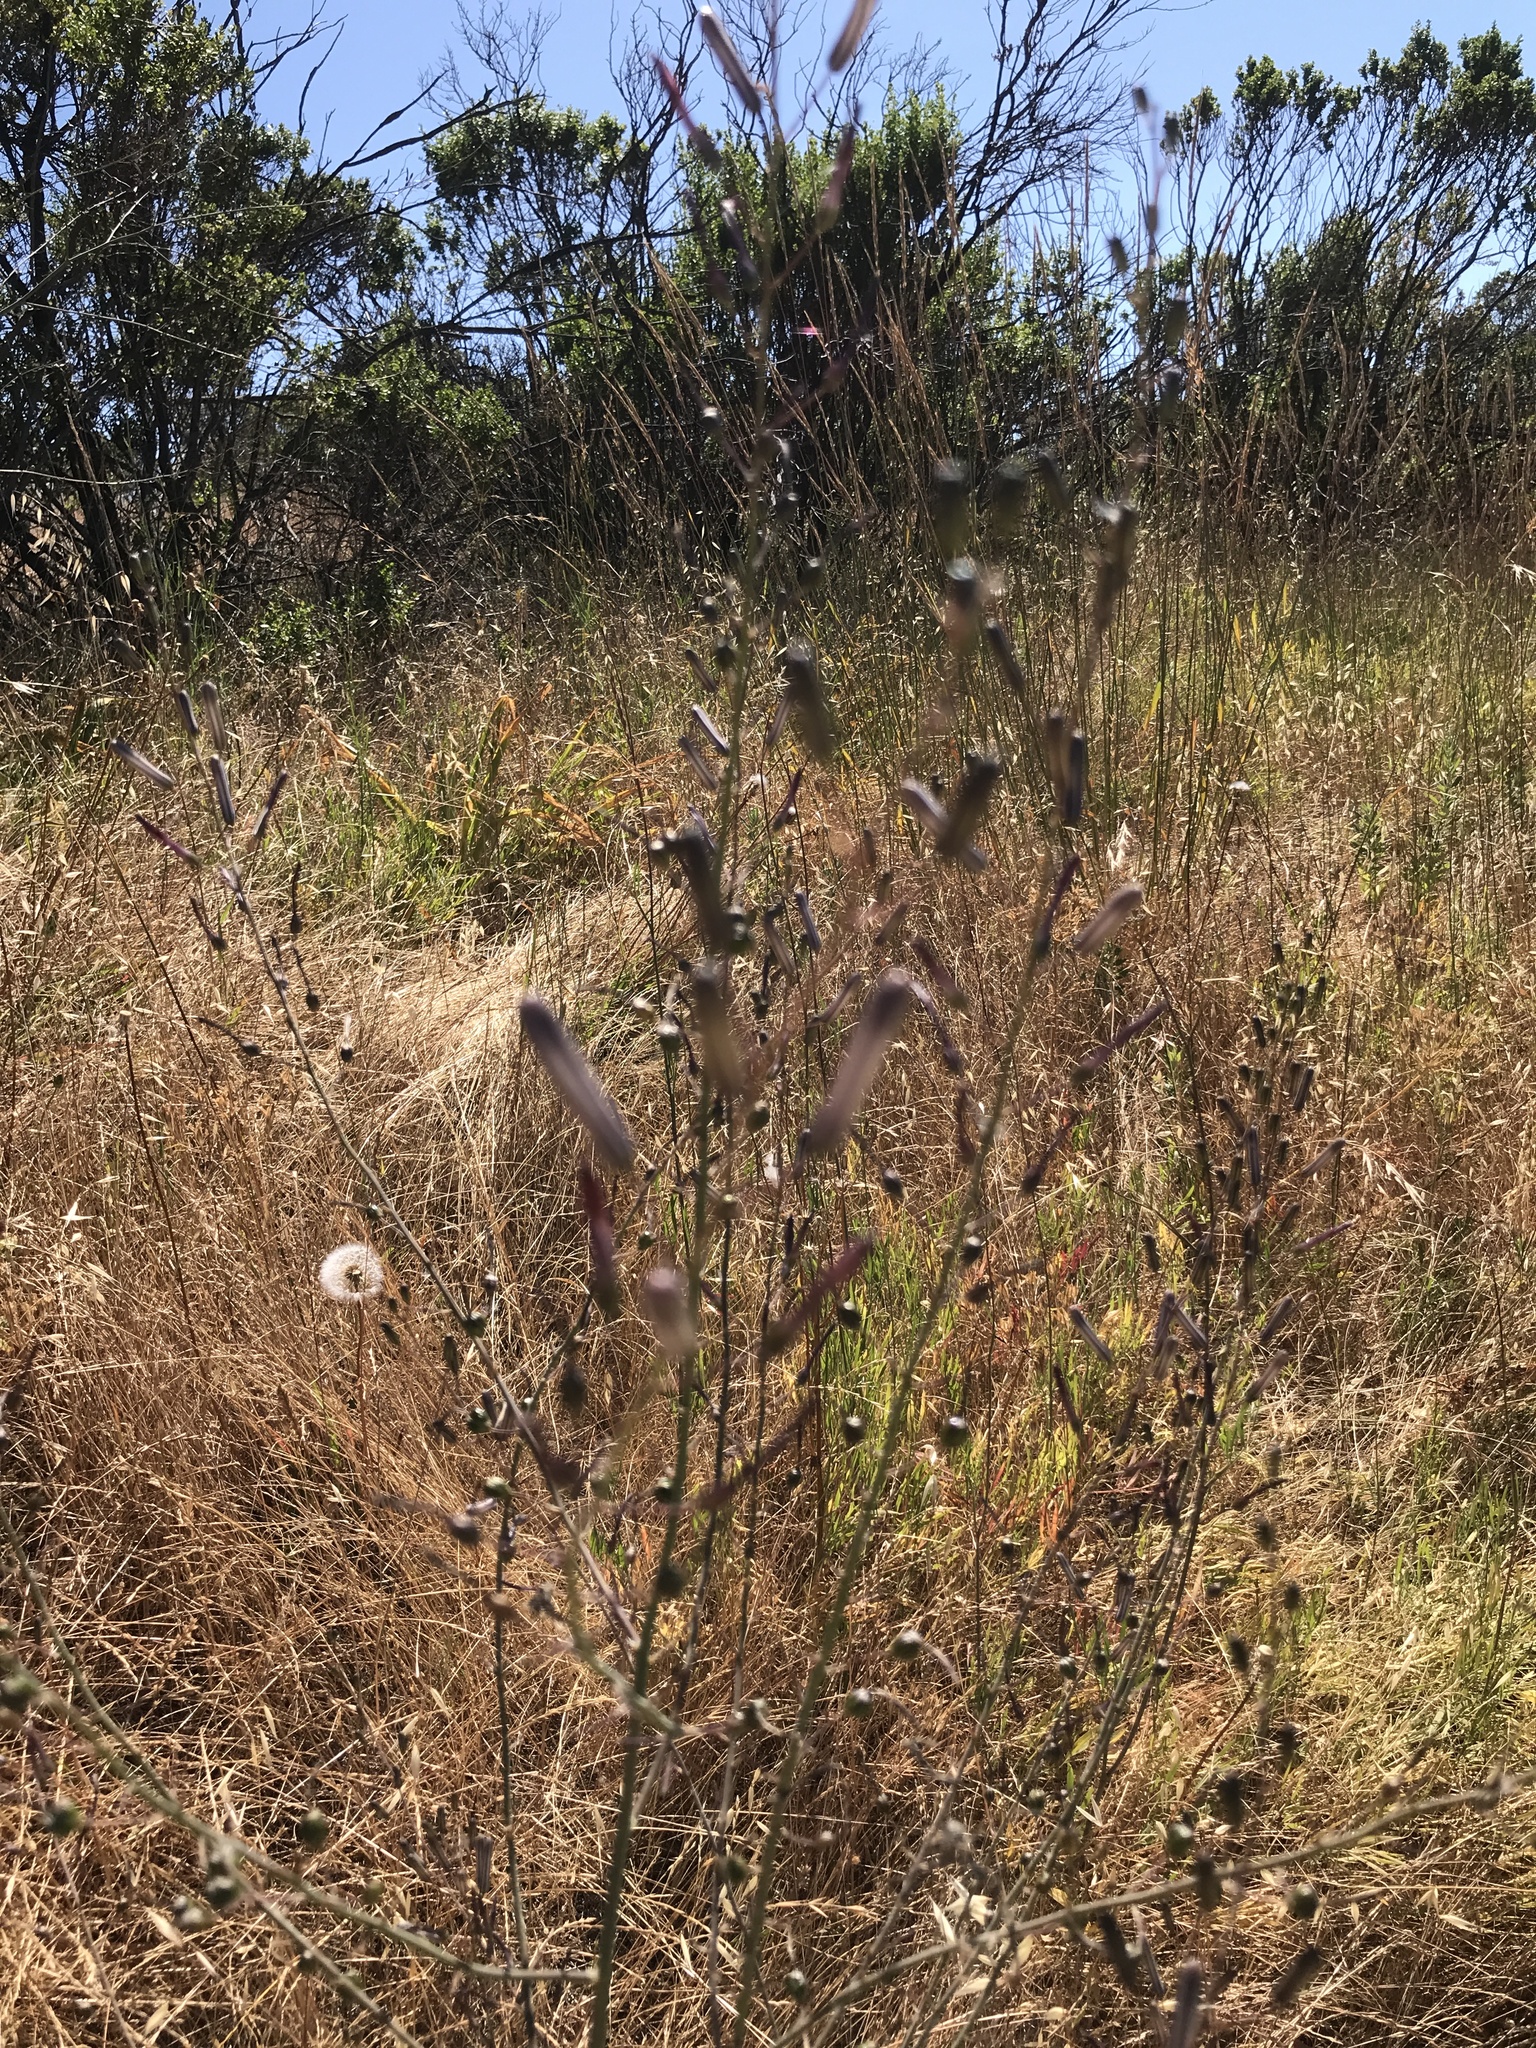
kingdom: Plantae
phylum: Tracheophyta
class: Liliopsida
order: Asparagales
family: Asparagaceae
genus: Chlorogalum
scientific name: Chlorogalum pomeridianum
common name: Amole
